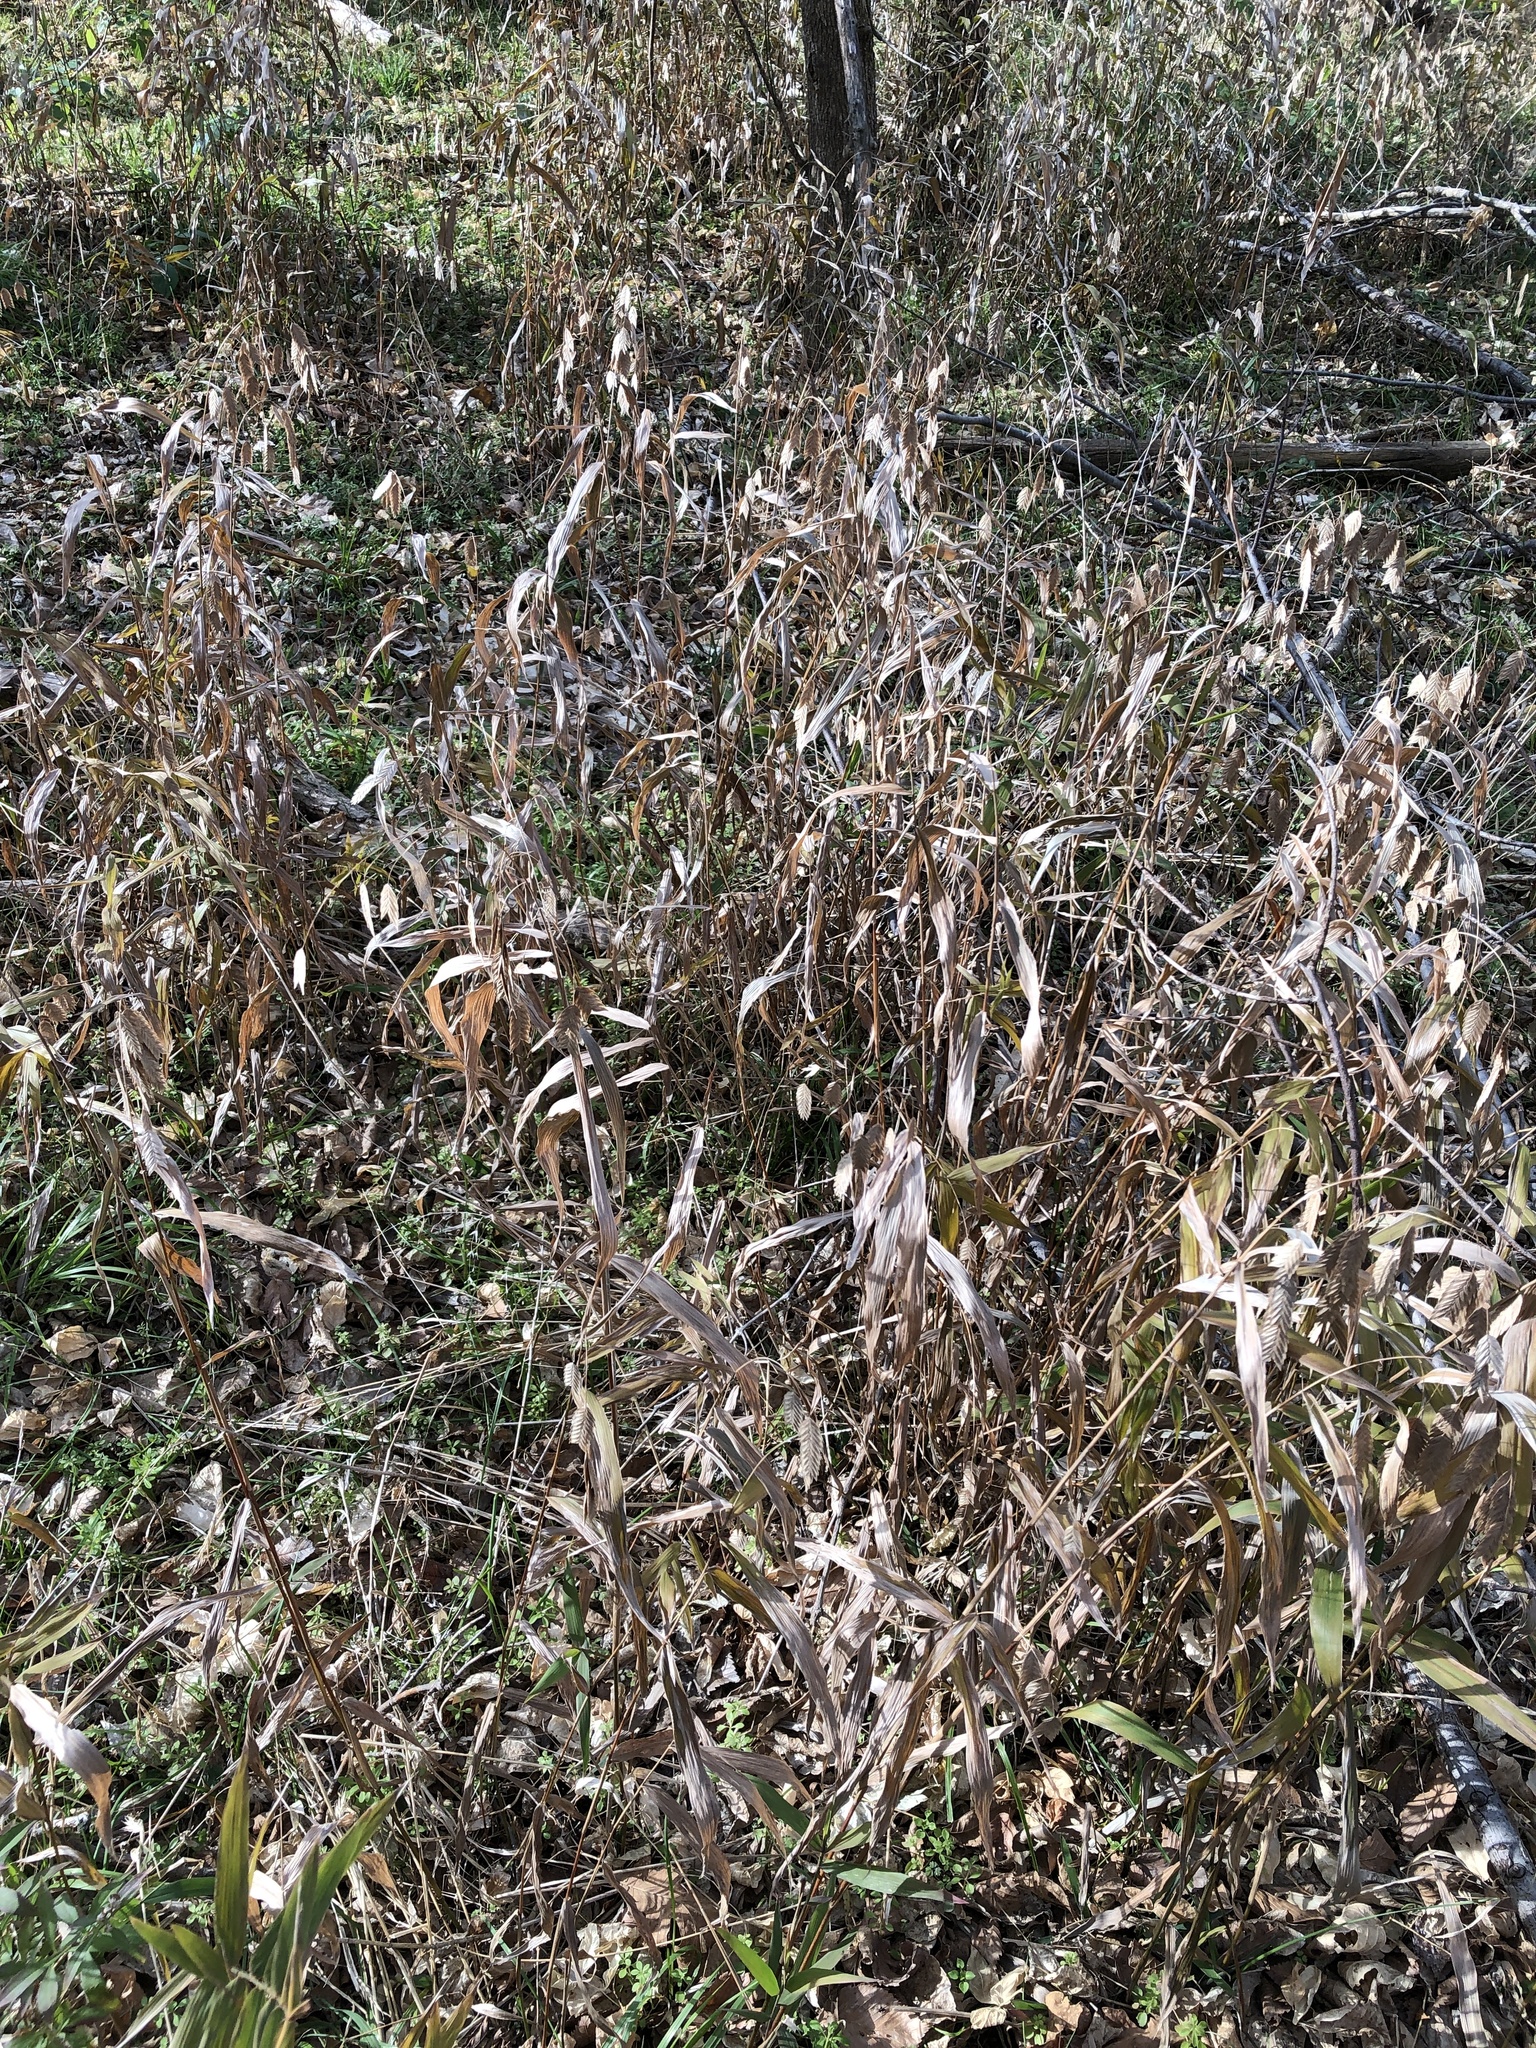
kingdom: Plantae
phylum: Tracheophyta
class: Liliopsida
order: Poales
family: Poaceae
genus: Chasmanthium
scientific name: Chasmanthium latifolium
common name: Broad-leaved chasmanthium
